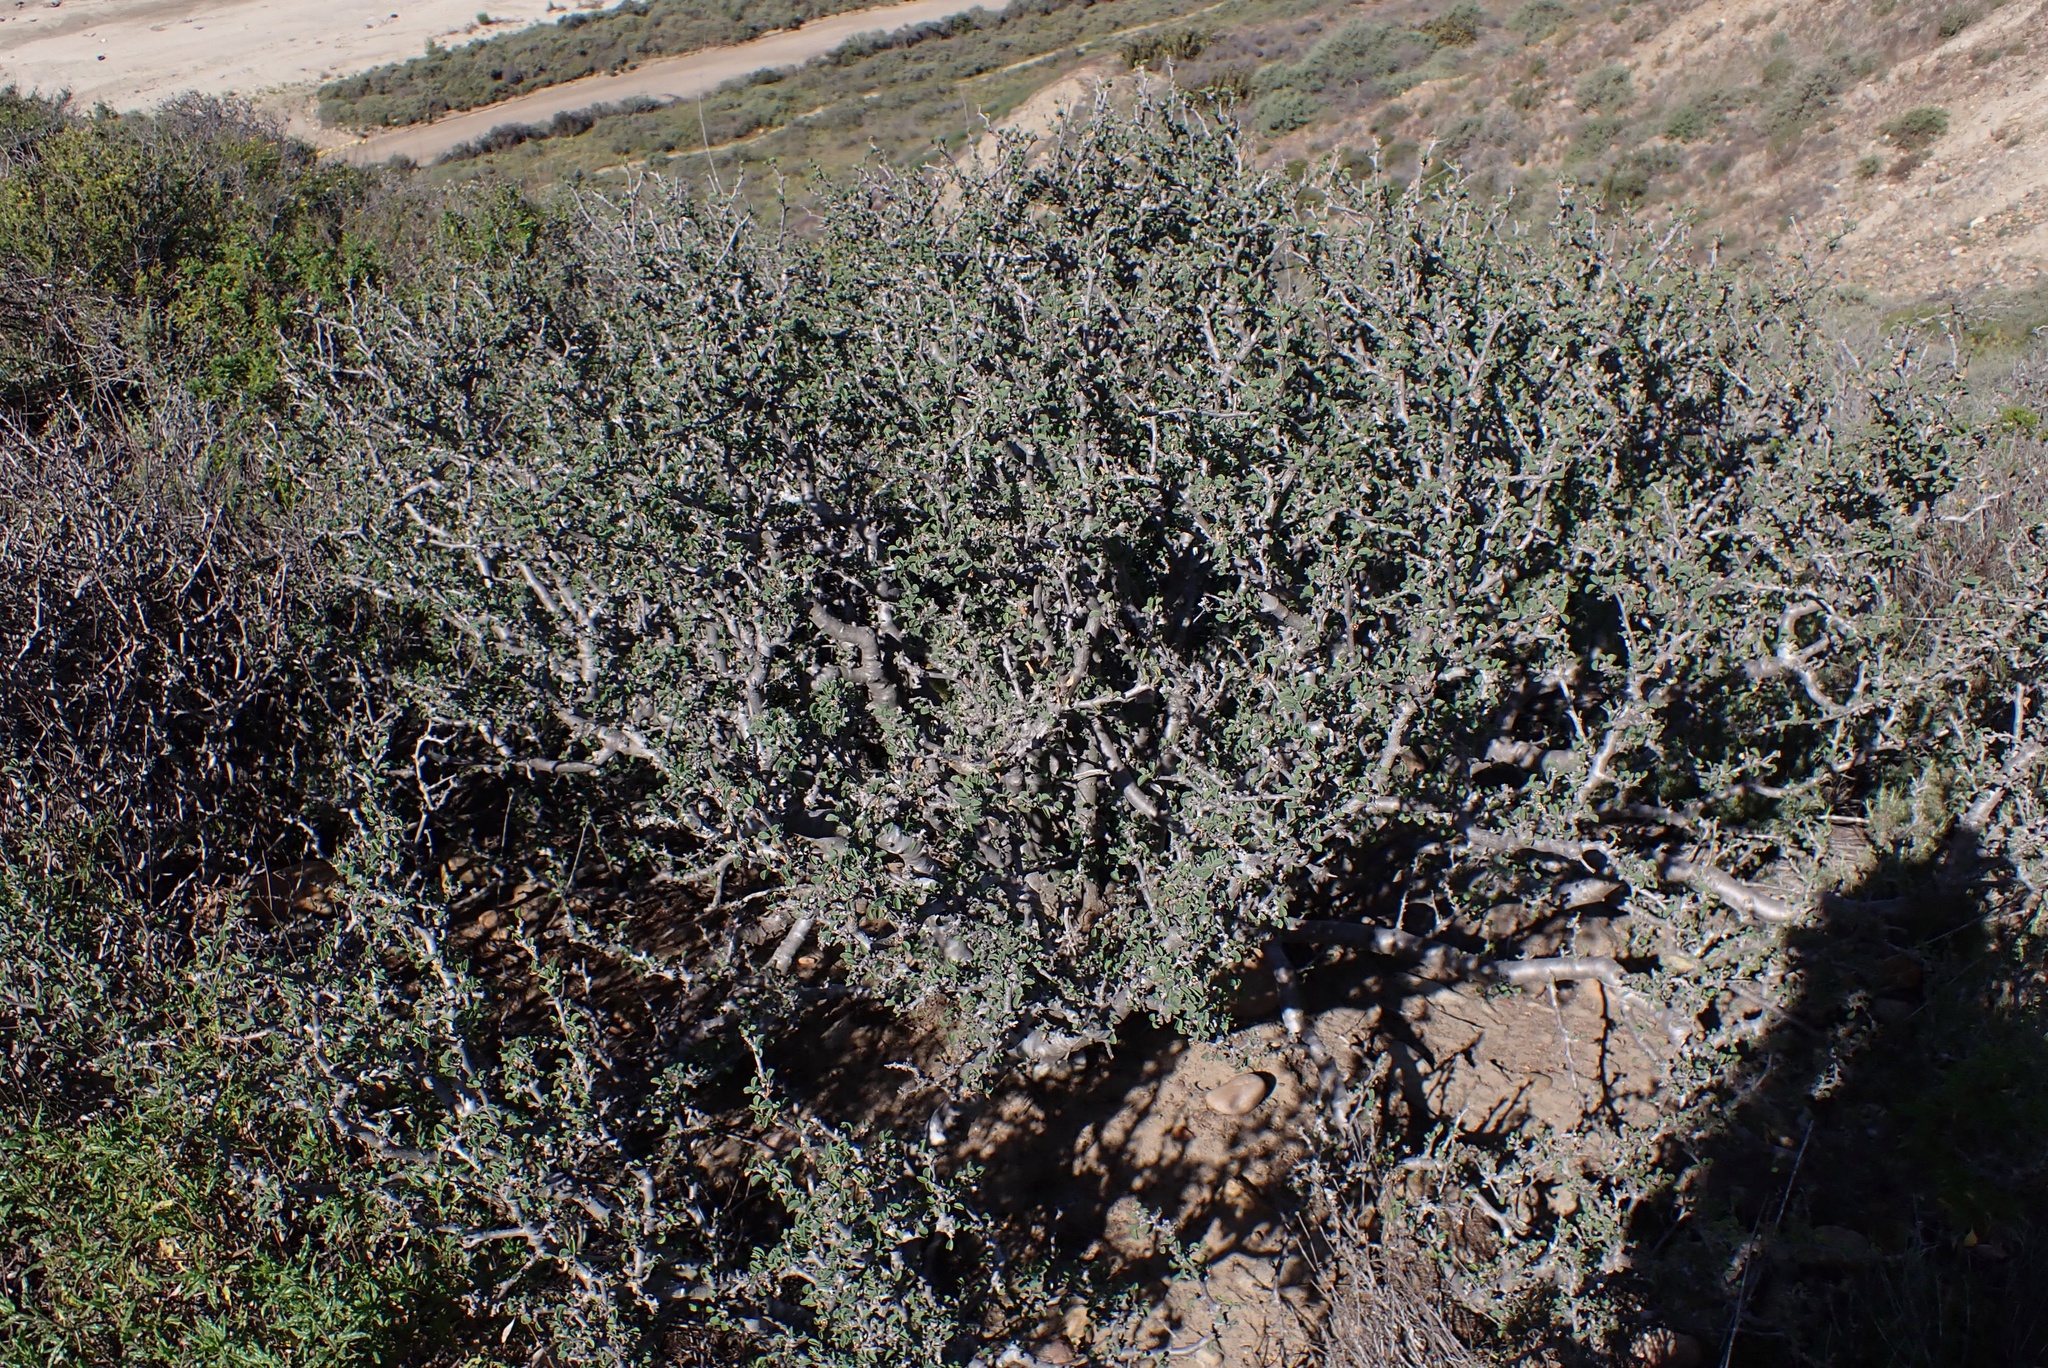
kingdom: Plantae
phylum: Tracheophyta
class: Magnoliopsida
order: Malpighiales
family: Euphorbiaceae
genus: Euphorbia
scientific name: Euphorbia misera
